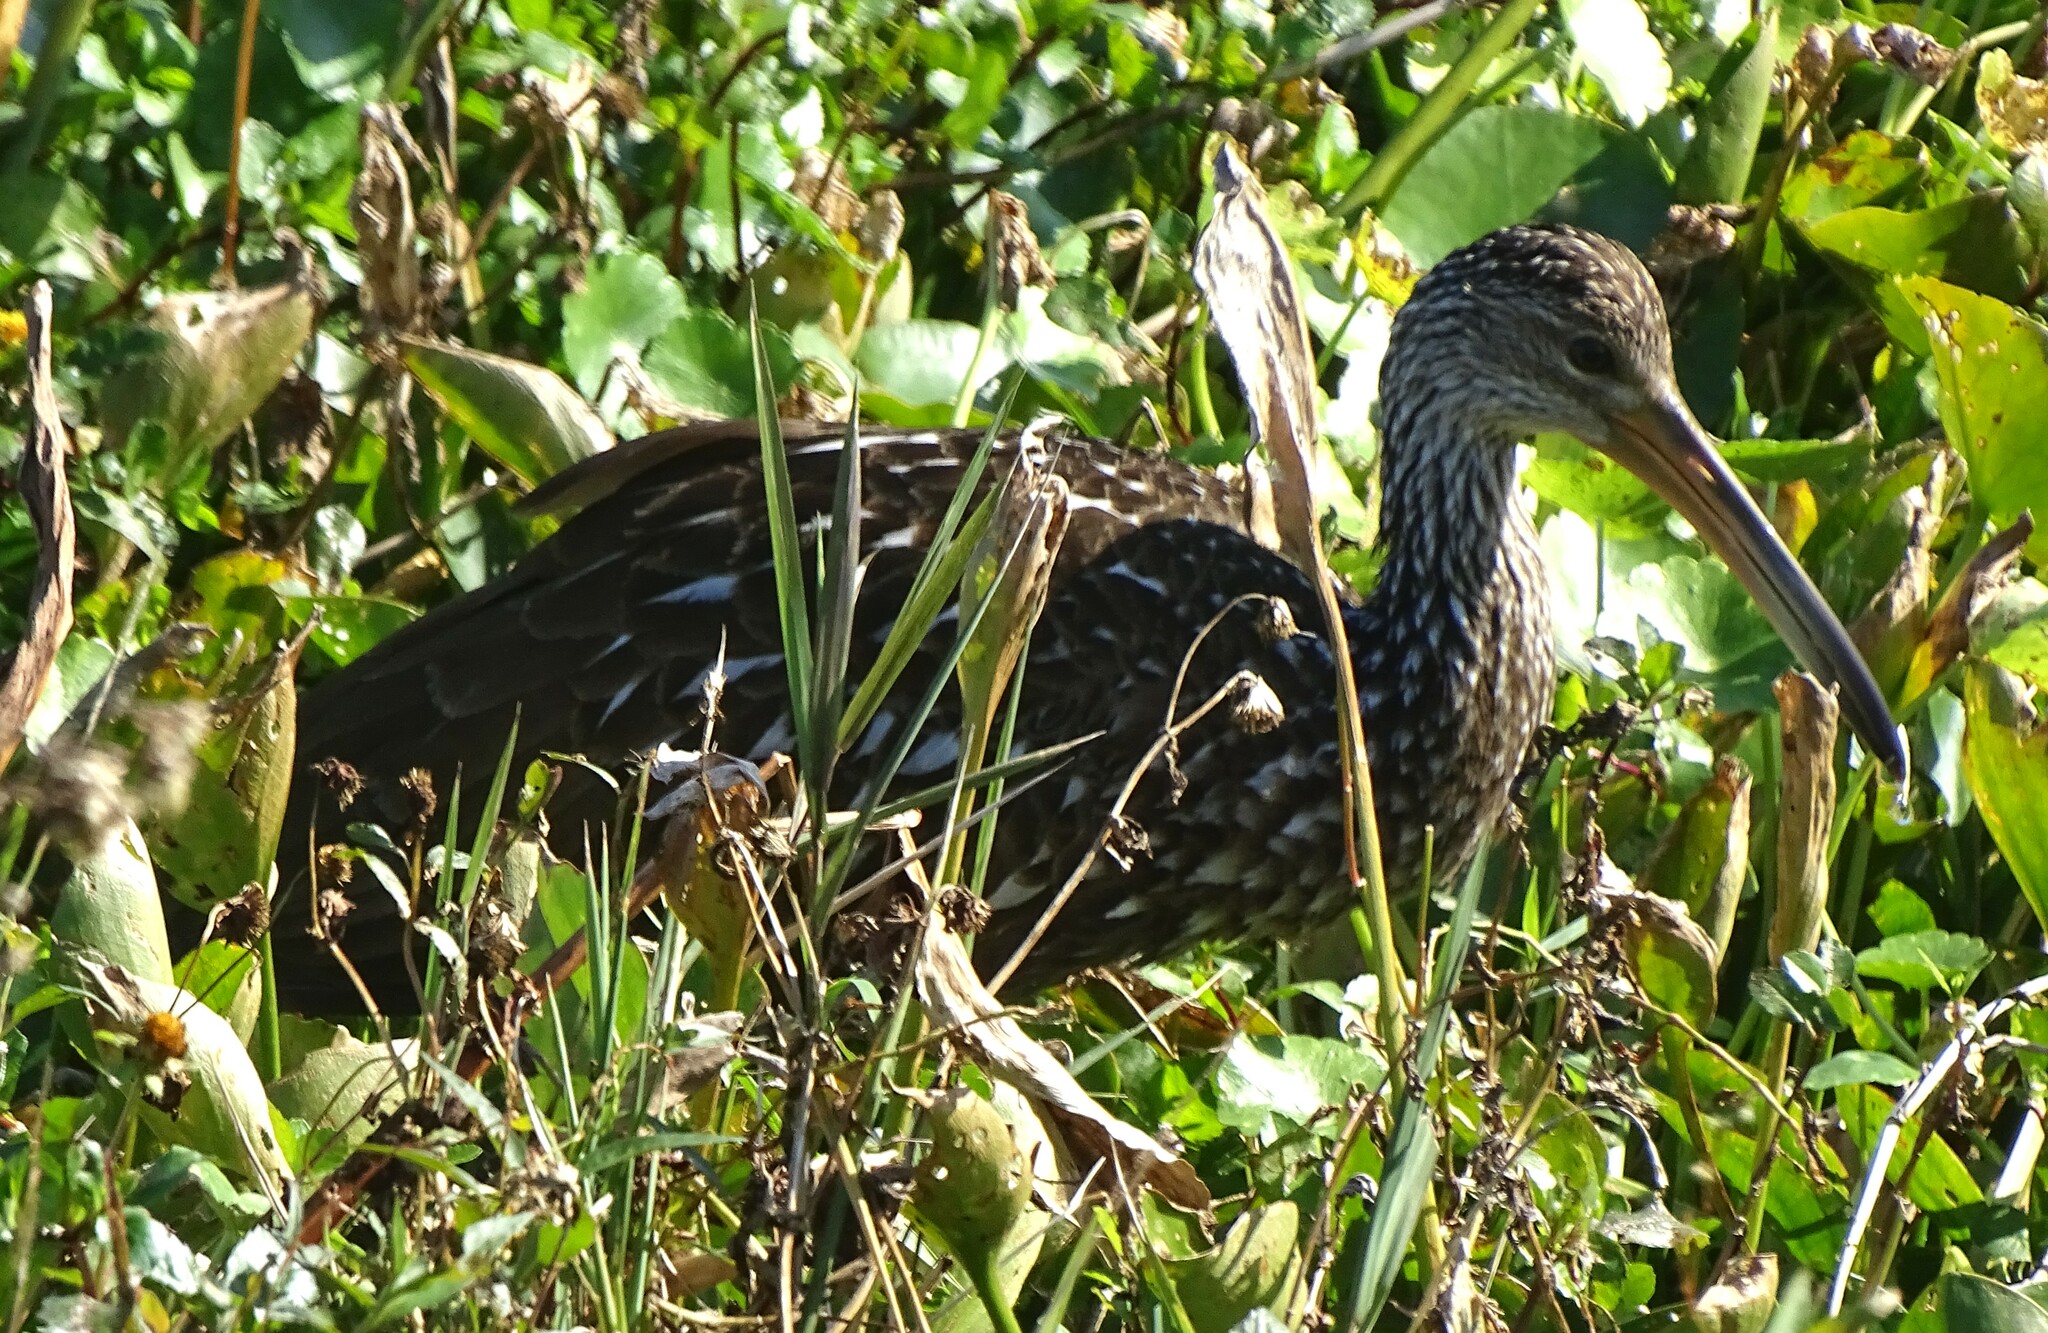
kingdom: Animalia
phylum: Chordata
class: Aves
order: Gruiformes
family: Aramidae
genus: Aramus
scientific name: Aramus guarauna
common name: Limpkin
